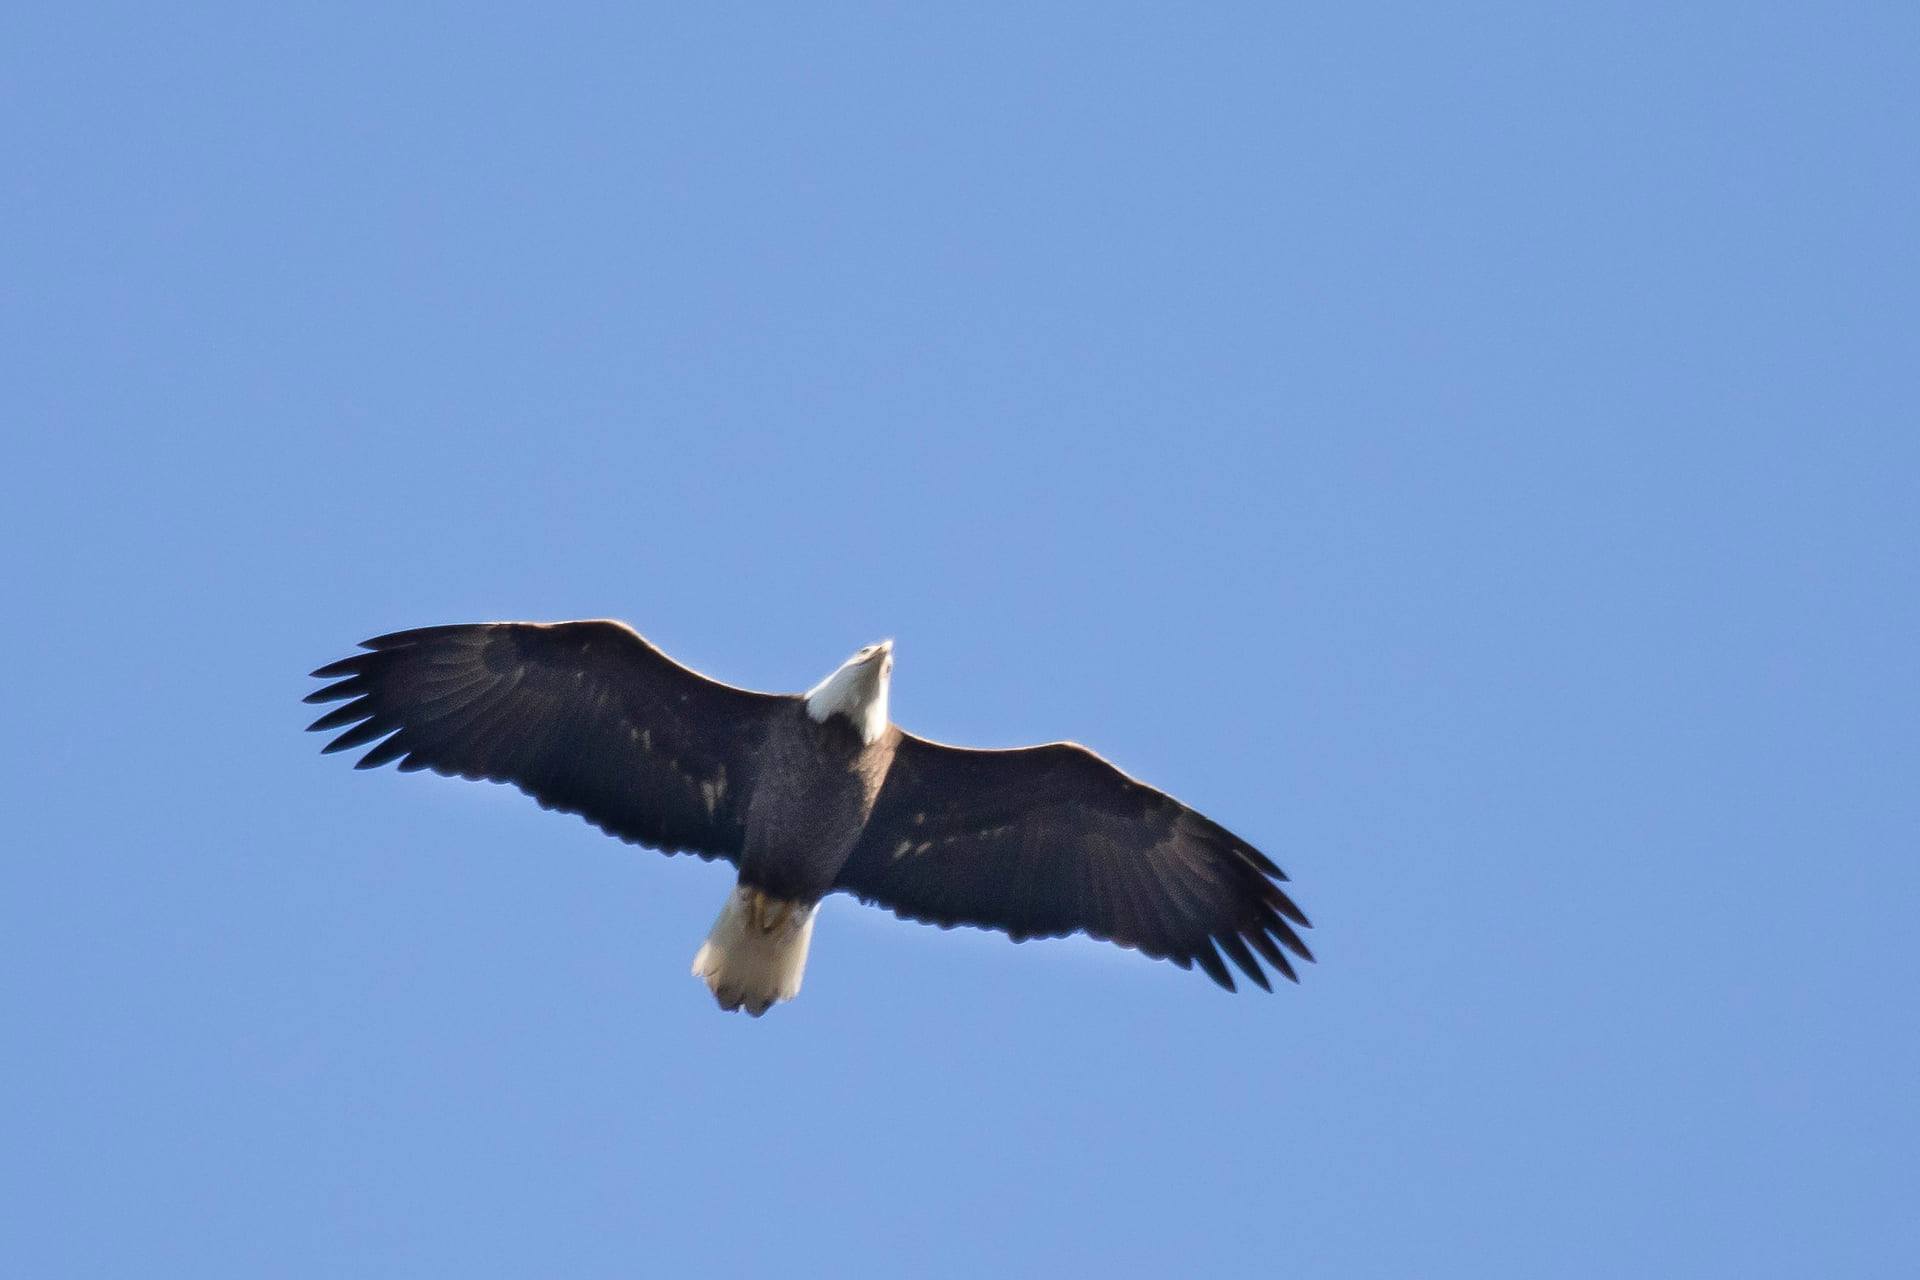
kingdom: Animalia
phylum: Chordata
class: Aves
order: Accipitriformes
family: Accipitridae
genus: Haliaeetus
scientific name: Haliaeetus leucocephalus
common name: Bald eagle
